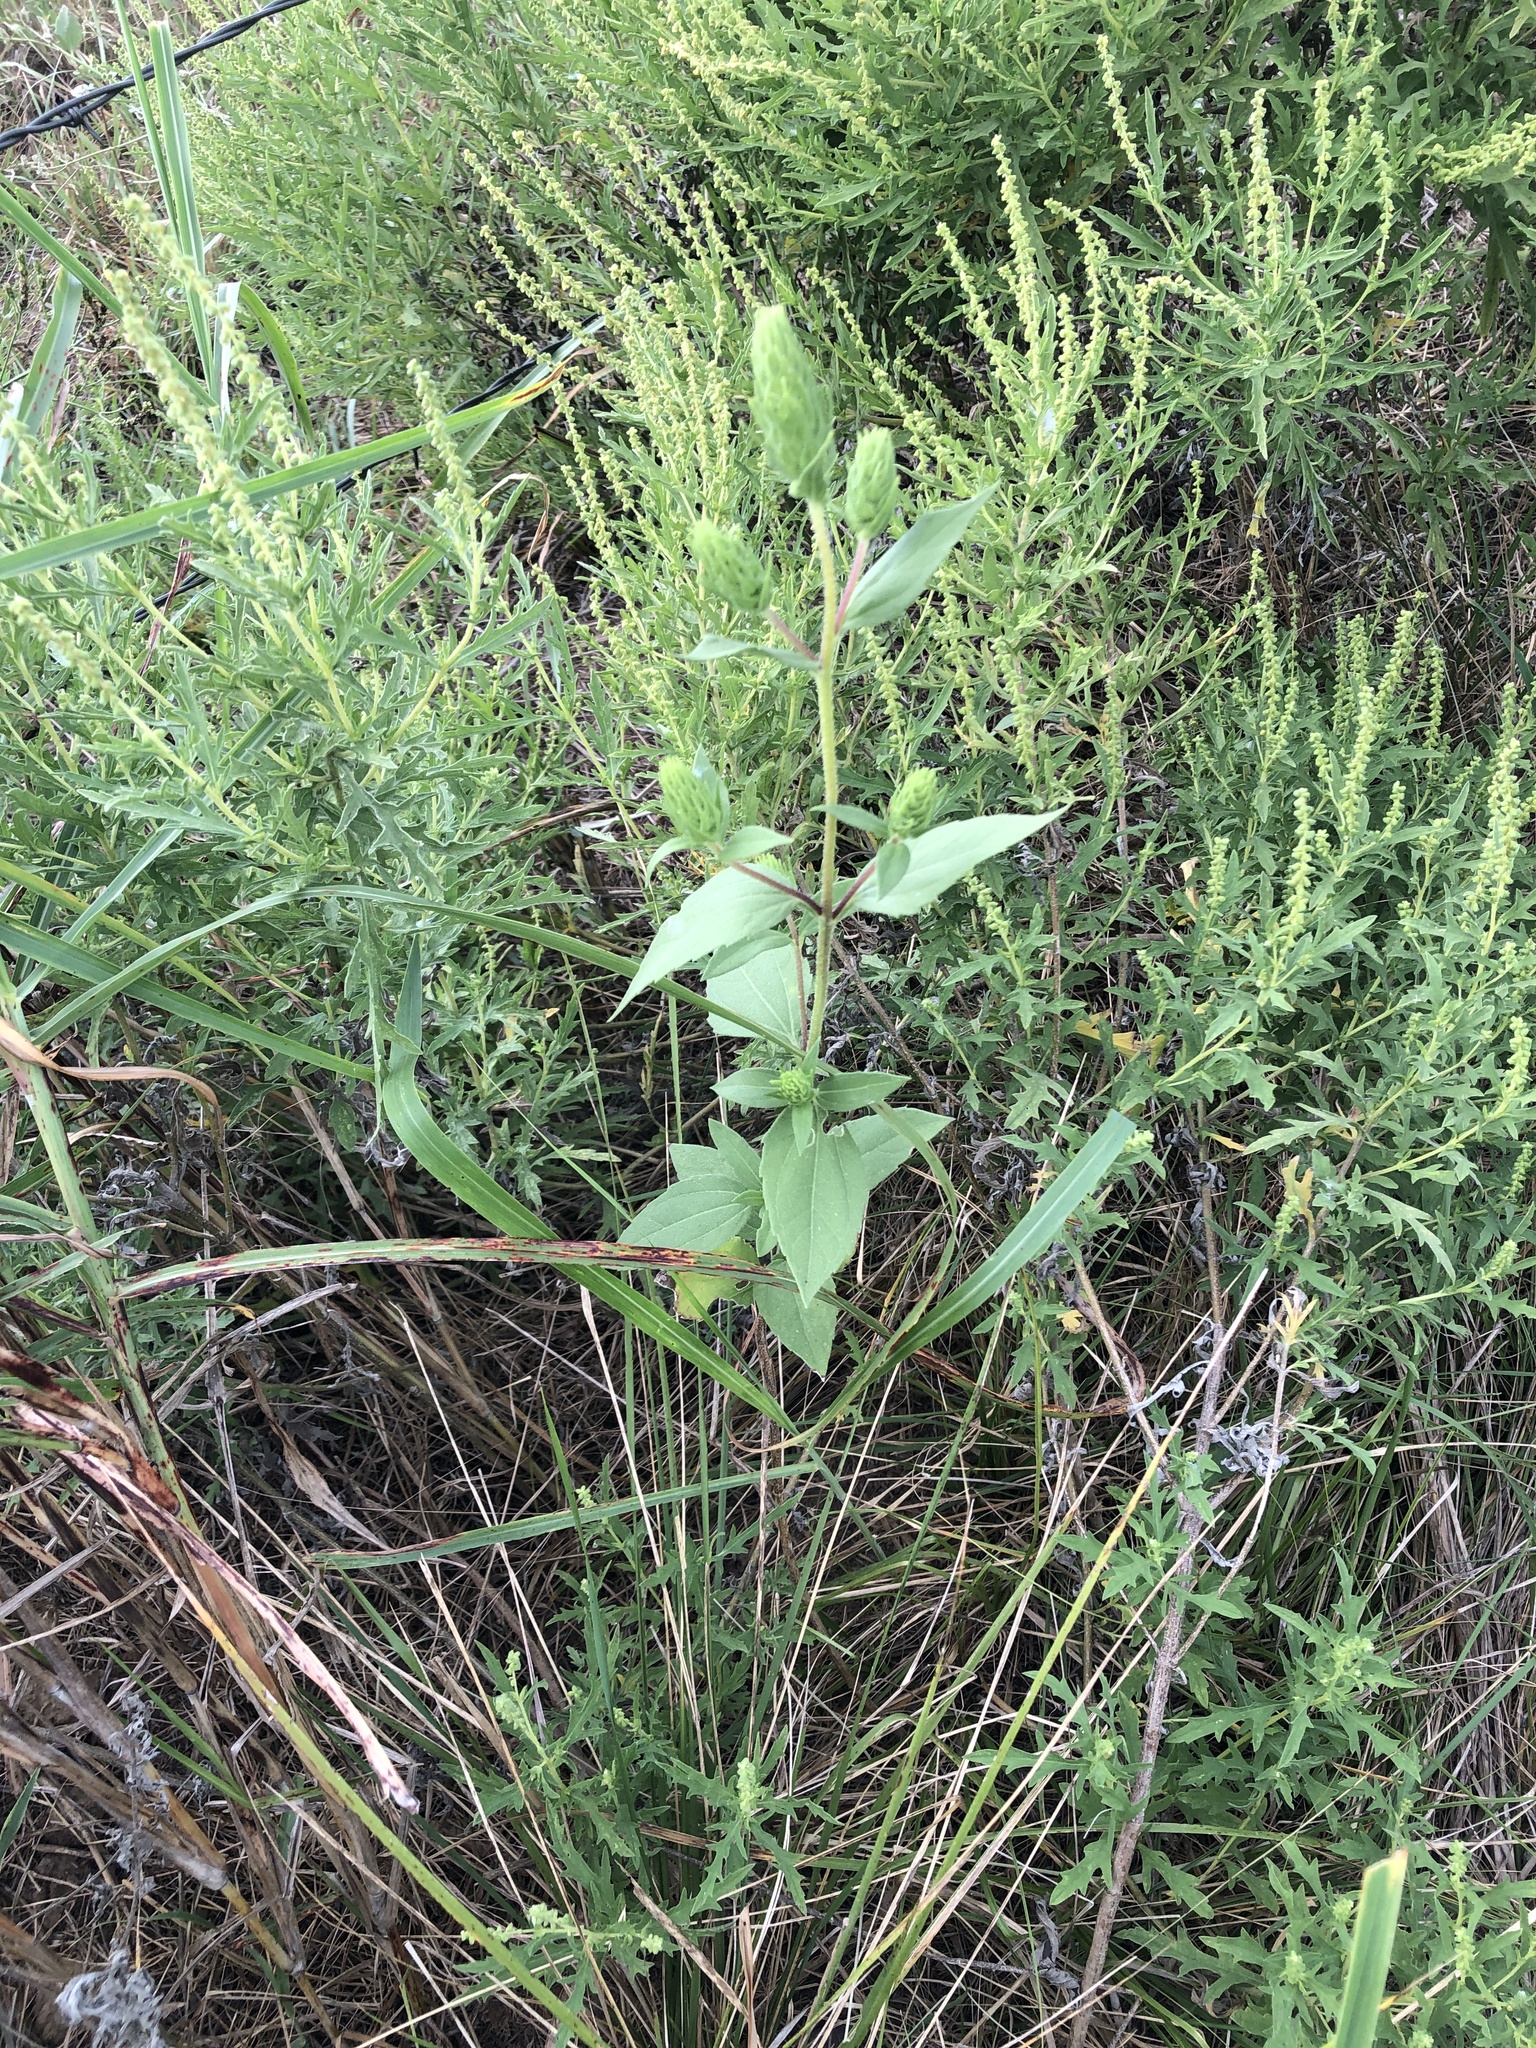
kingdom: Plantae
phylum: Tracheophyta
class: Magnoliopsida
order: Asterales
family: Asteraceae
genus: Iva
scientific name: Iva annua
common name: Marsh-elder
